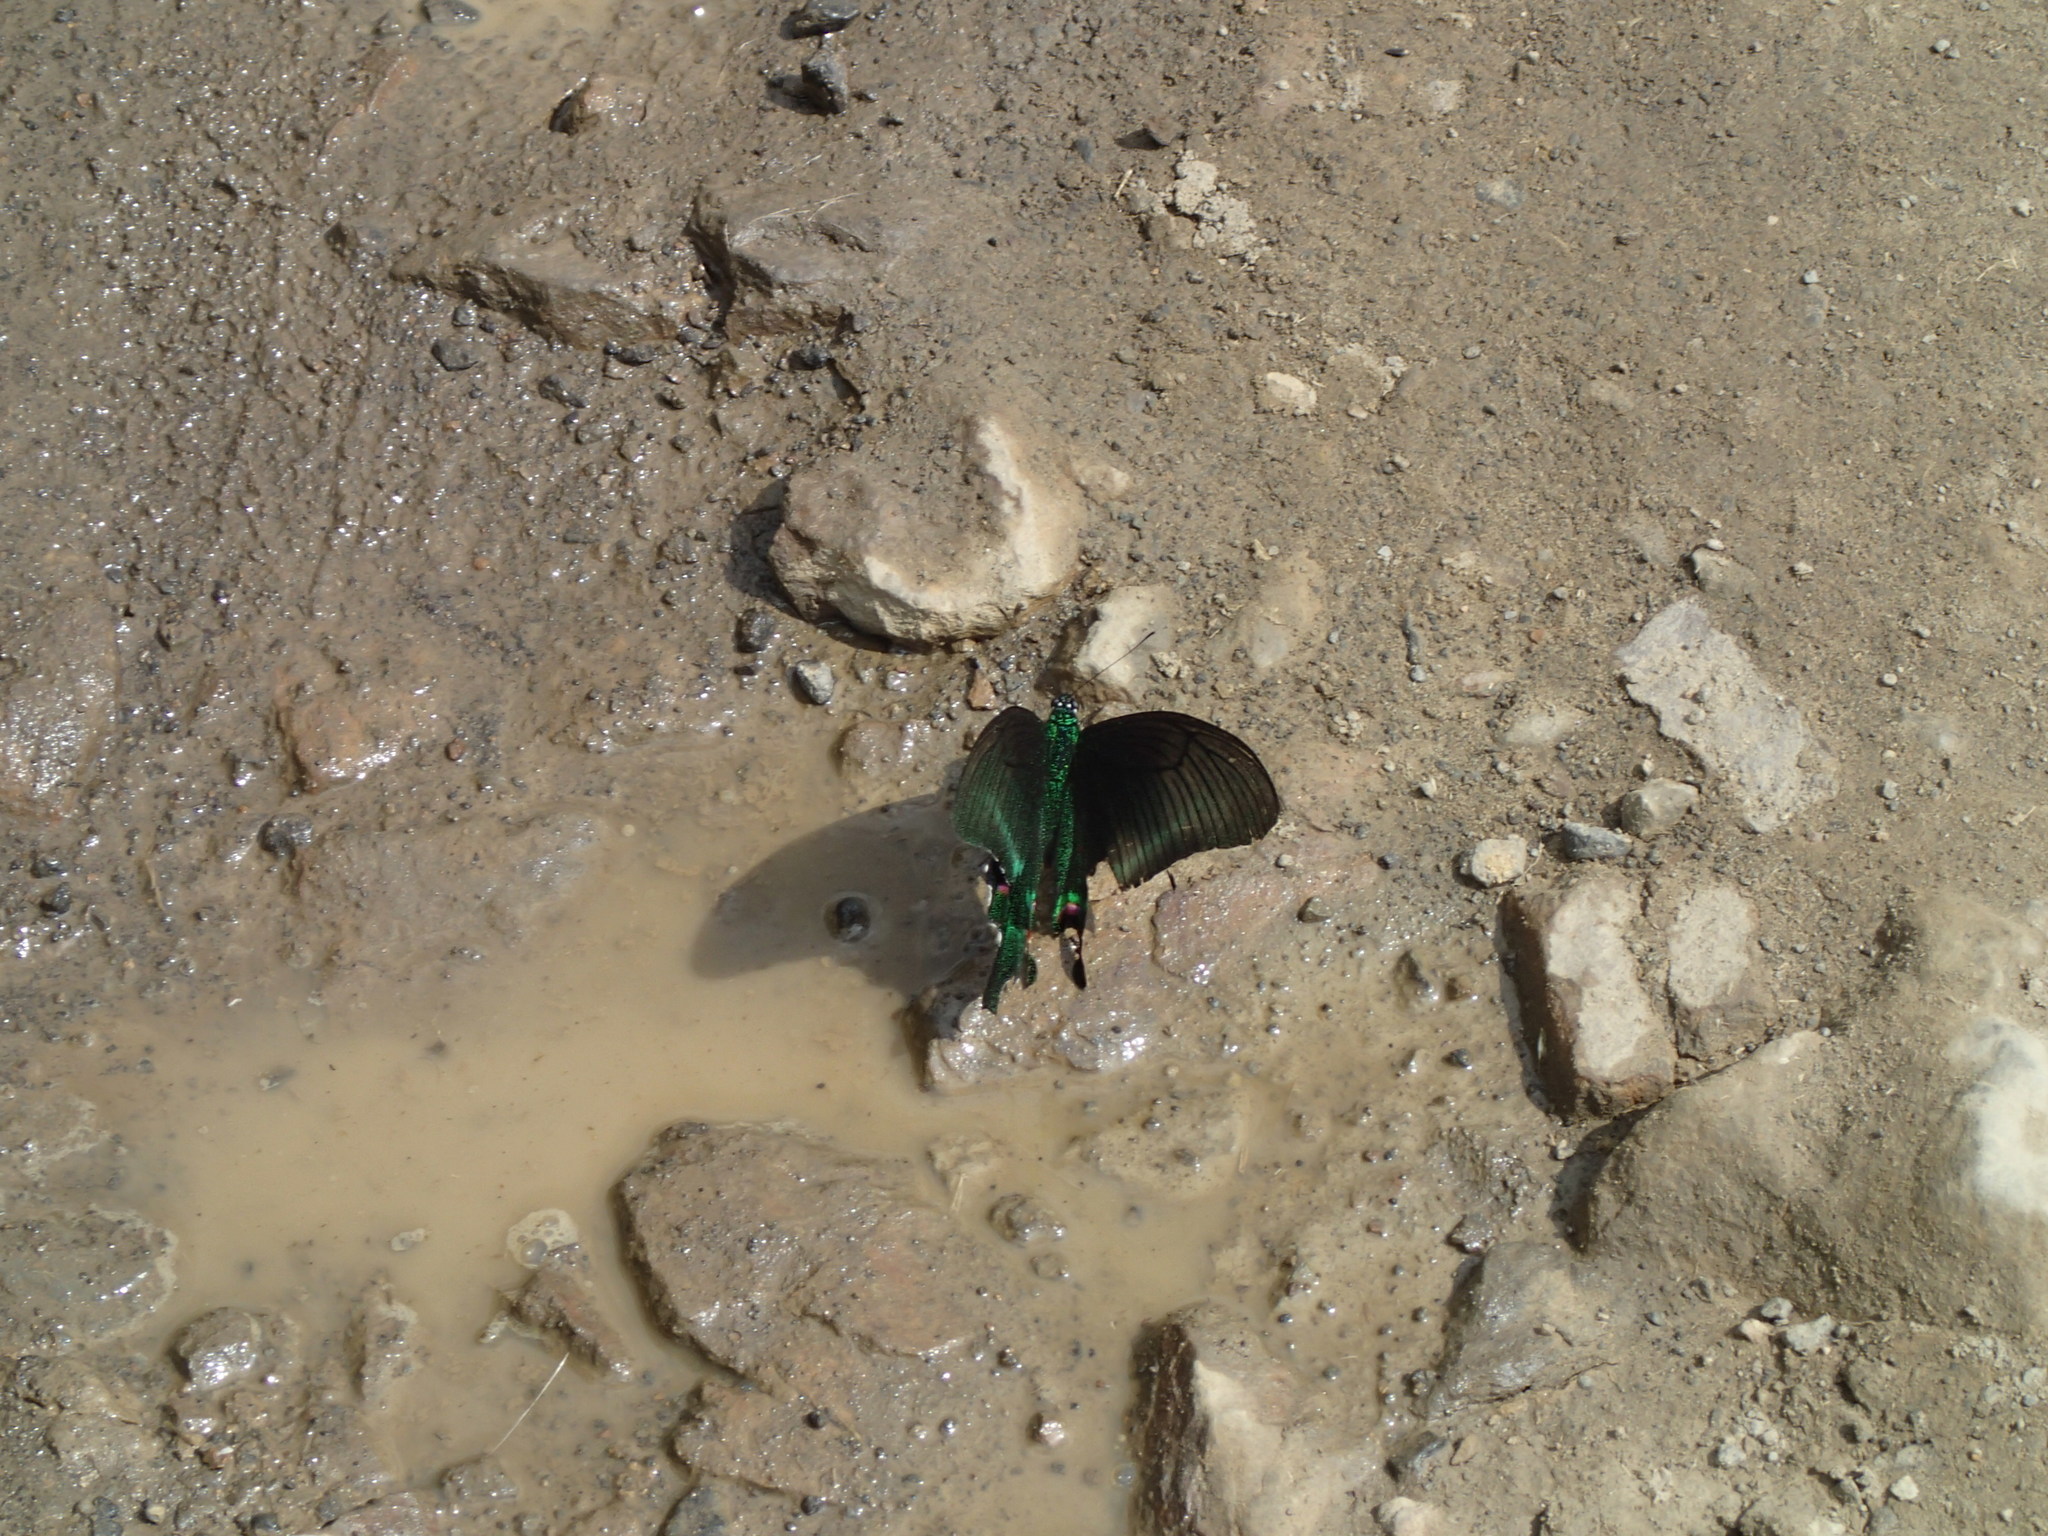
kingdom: Animalia
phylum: Arthropoda
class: Insecta
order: Lepidoptera
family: Papilionidae
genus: Papilio
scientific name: Papilio arcturus
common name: Blue peacock
